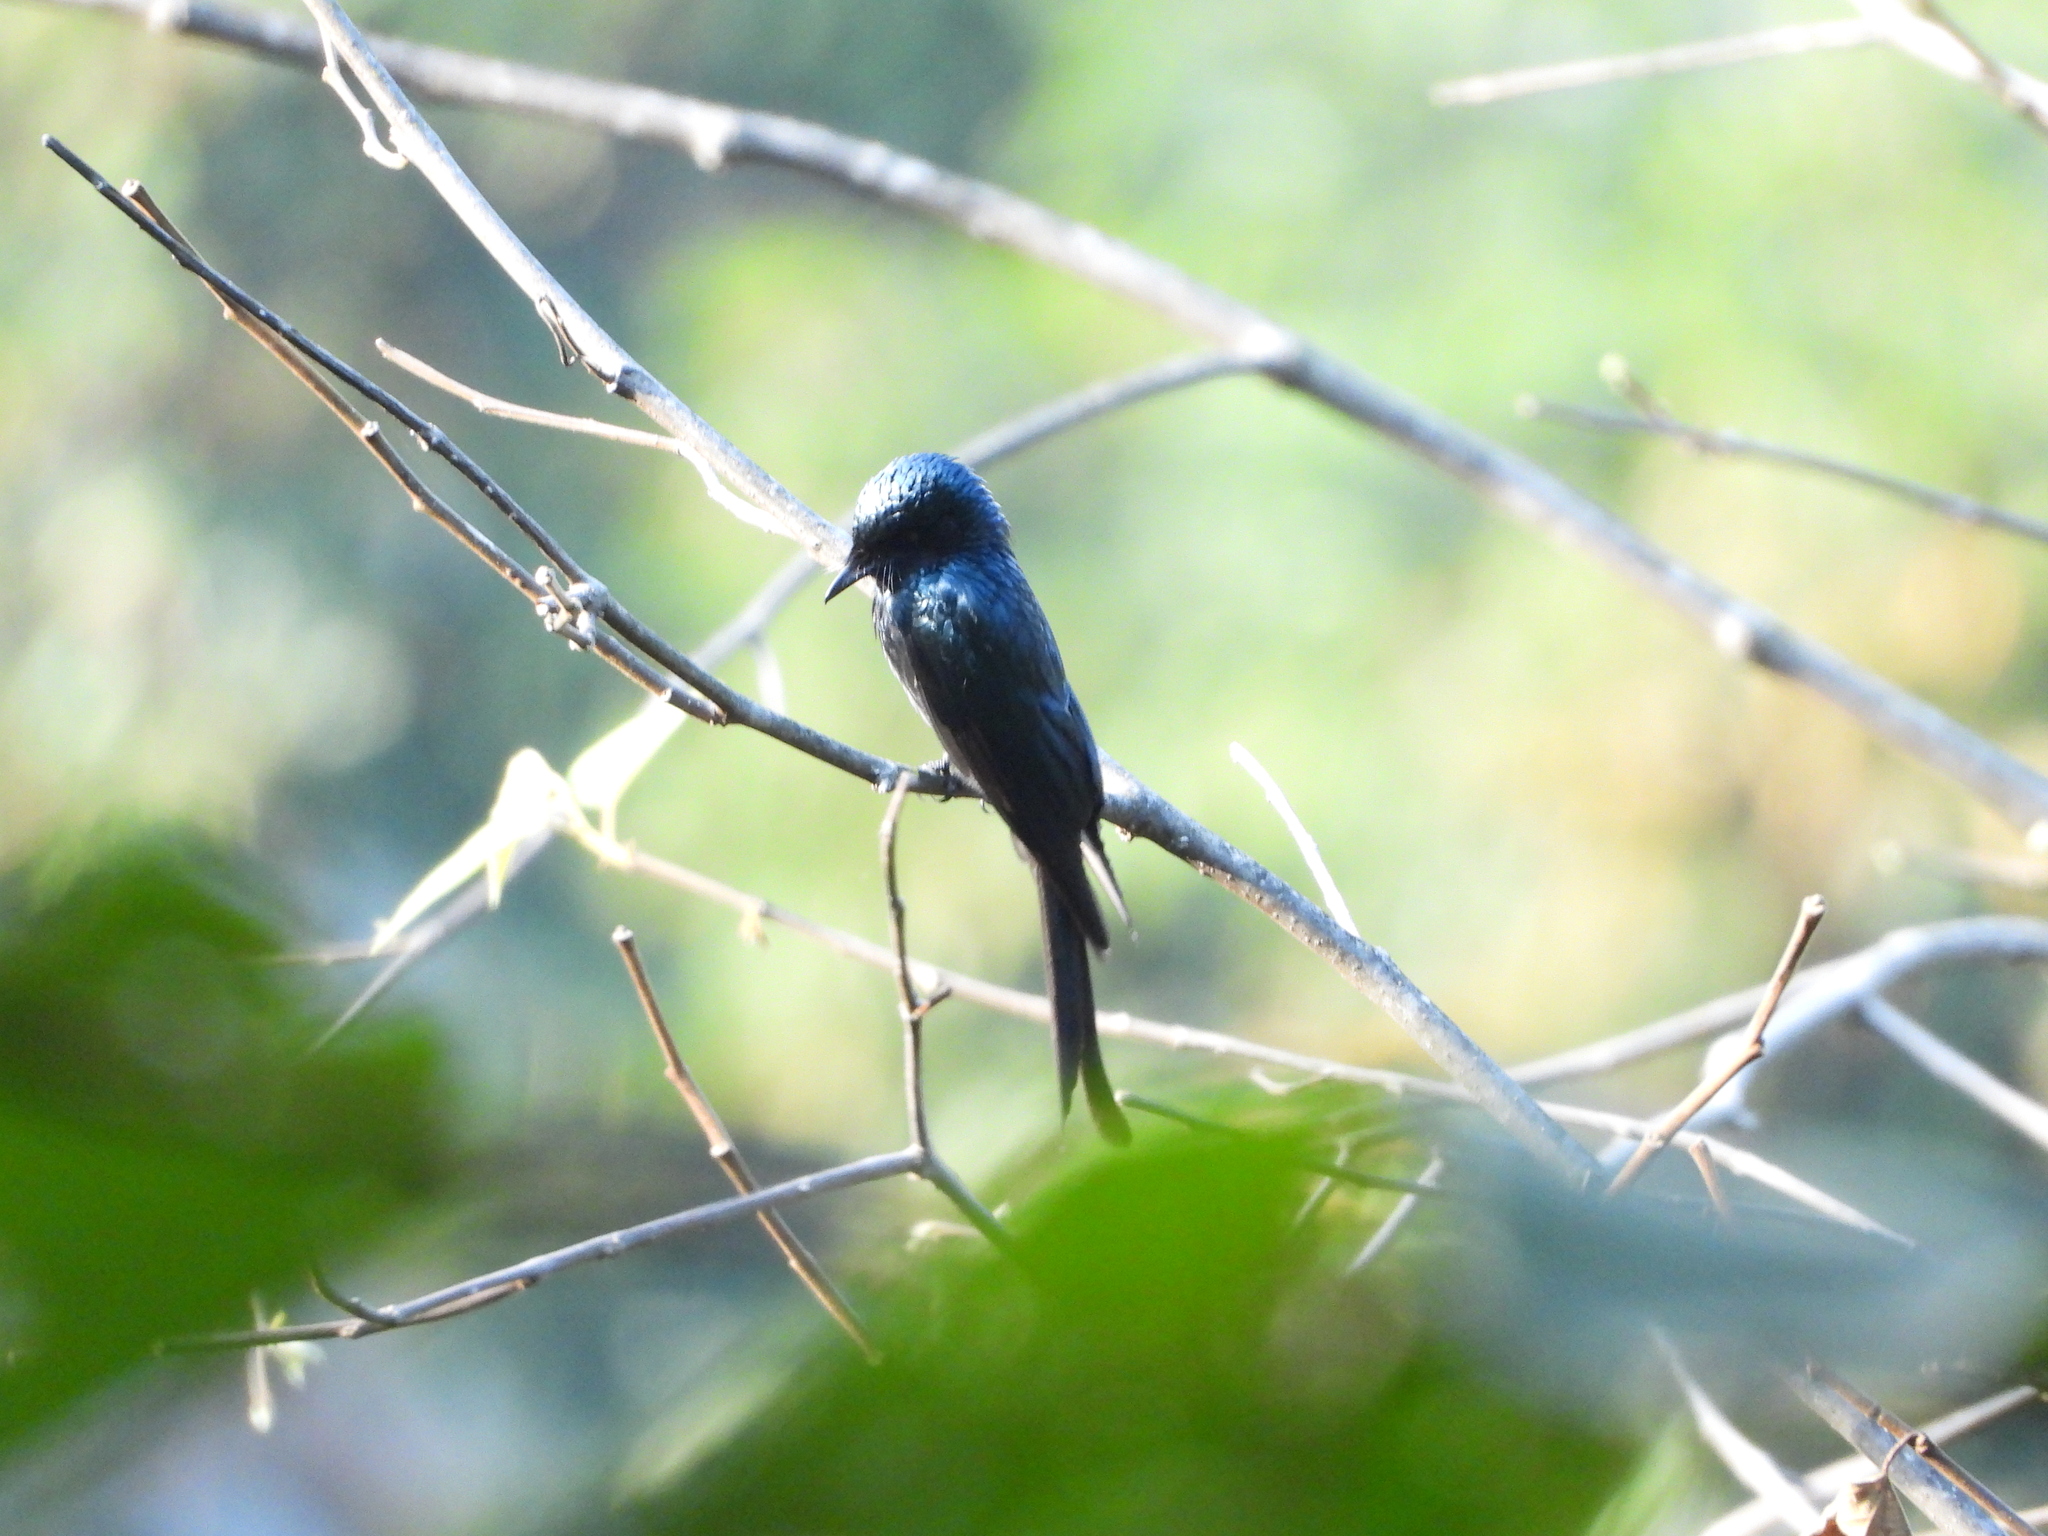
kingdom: Animalia
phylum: Chordata
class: Aves
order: Passeriformes
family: Dicruridae
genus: Dicrurus
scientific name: Dicrurus aeneus
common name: Bronzed drongo
